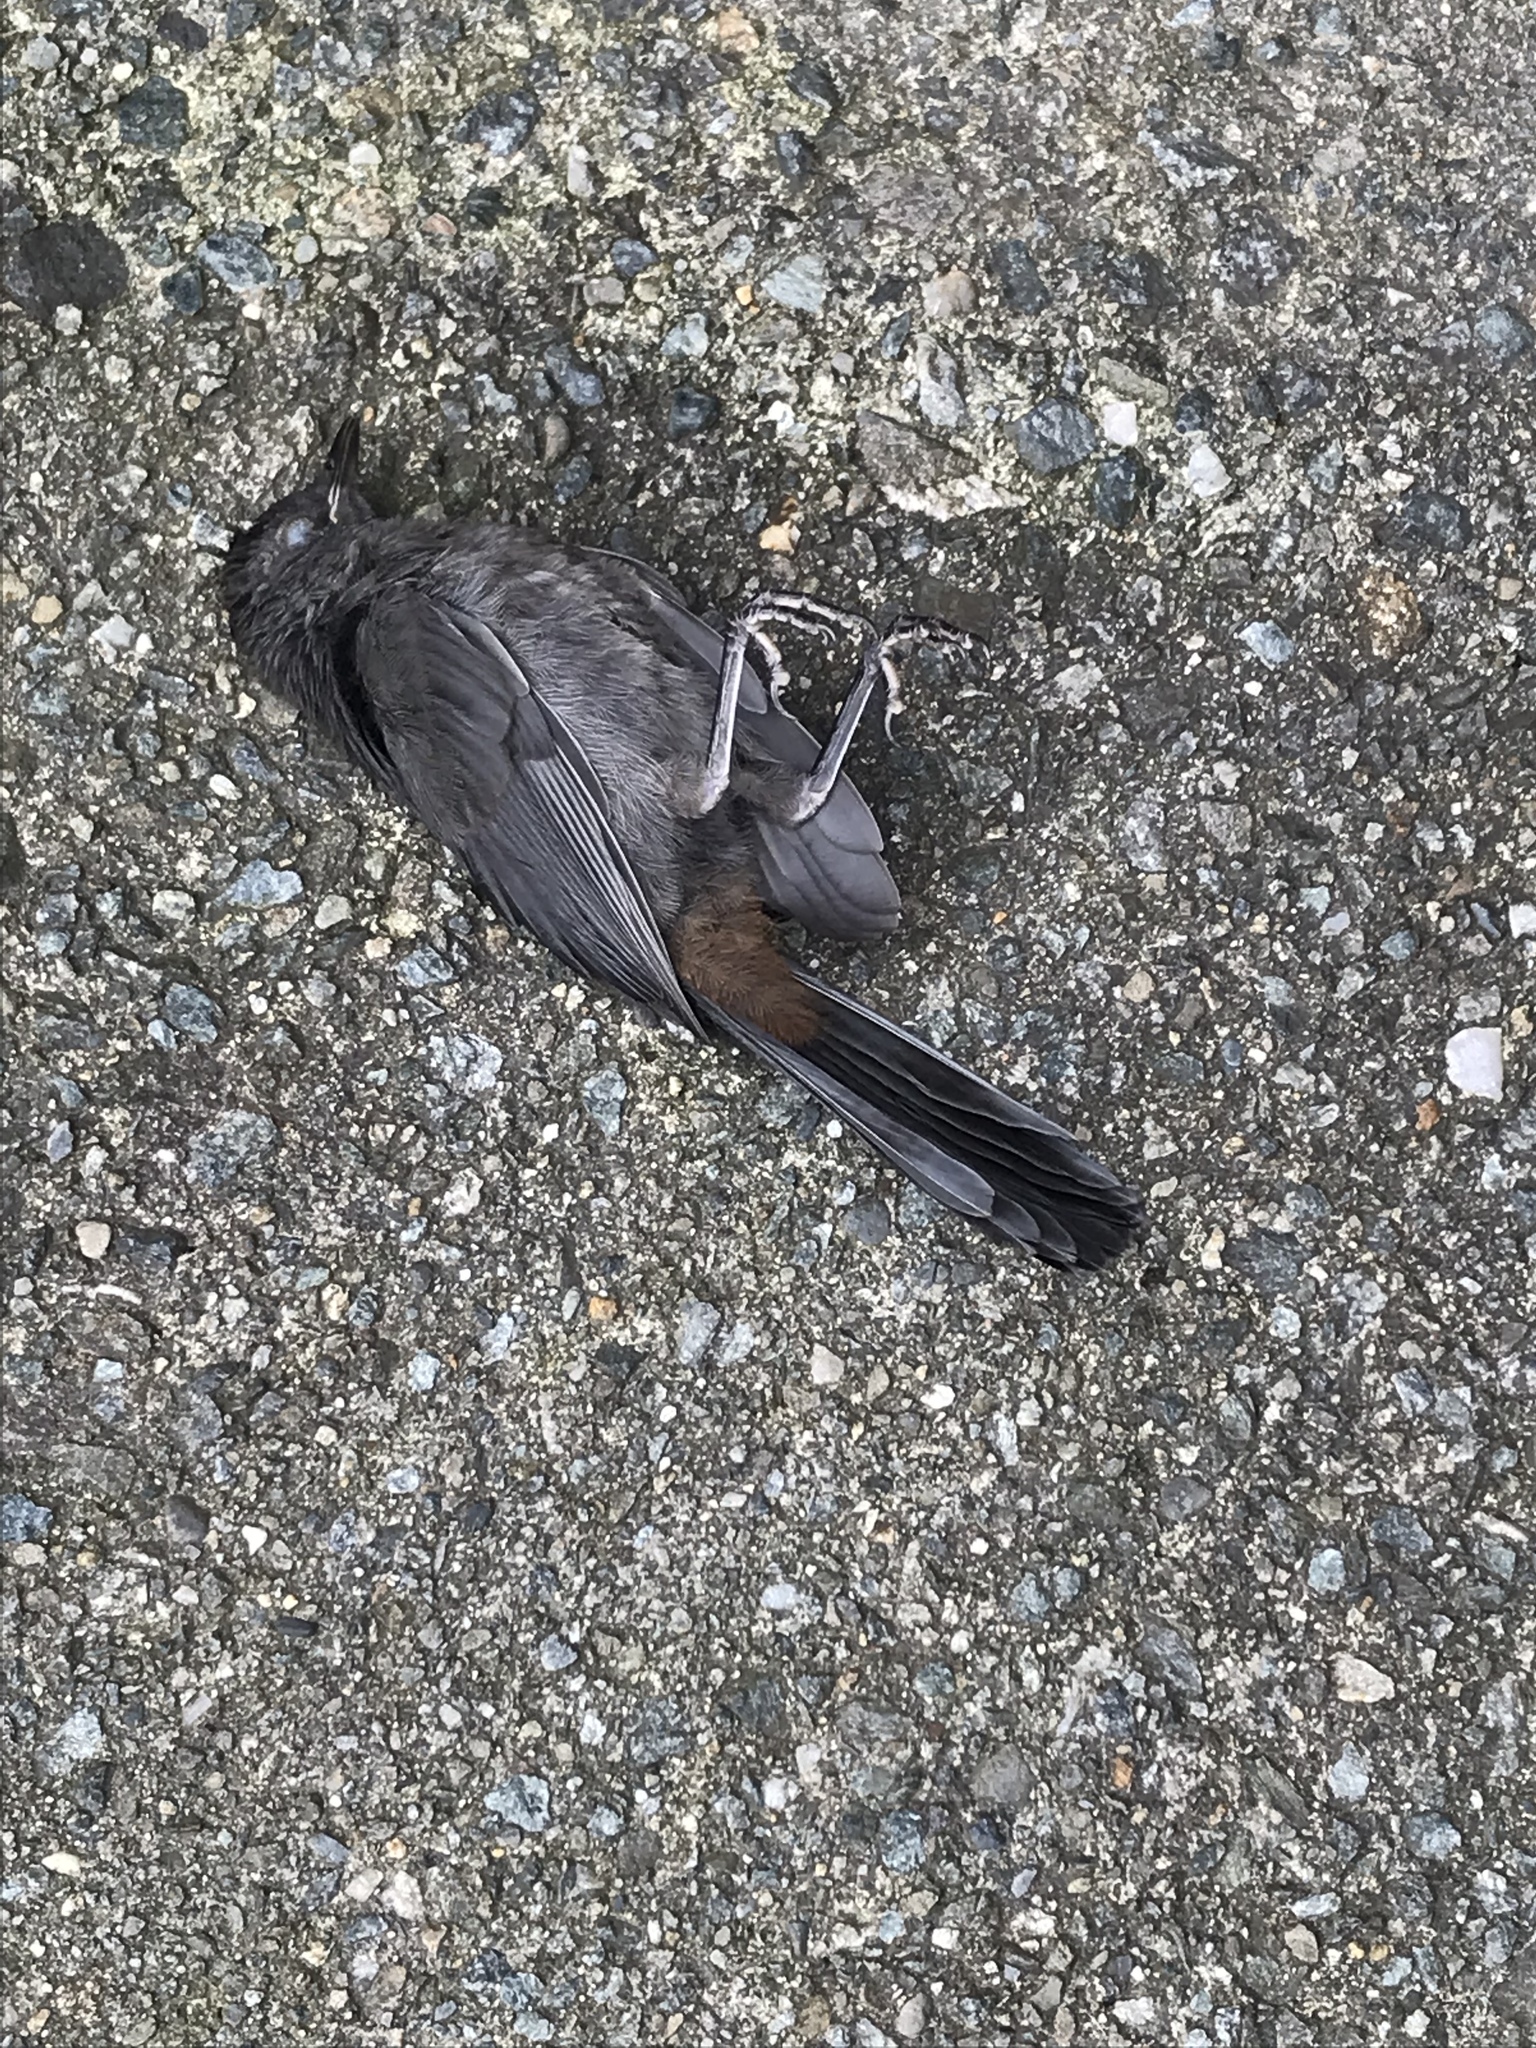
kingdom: Animalia
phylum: Chordata
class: Aves
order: Passeriformes
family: Mimidae
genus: Dumetella
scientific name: Dumetella carolinensis
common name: Gray catbird
